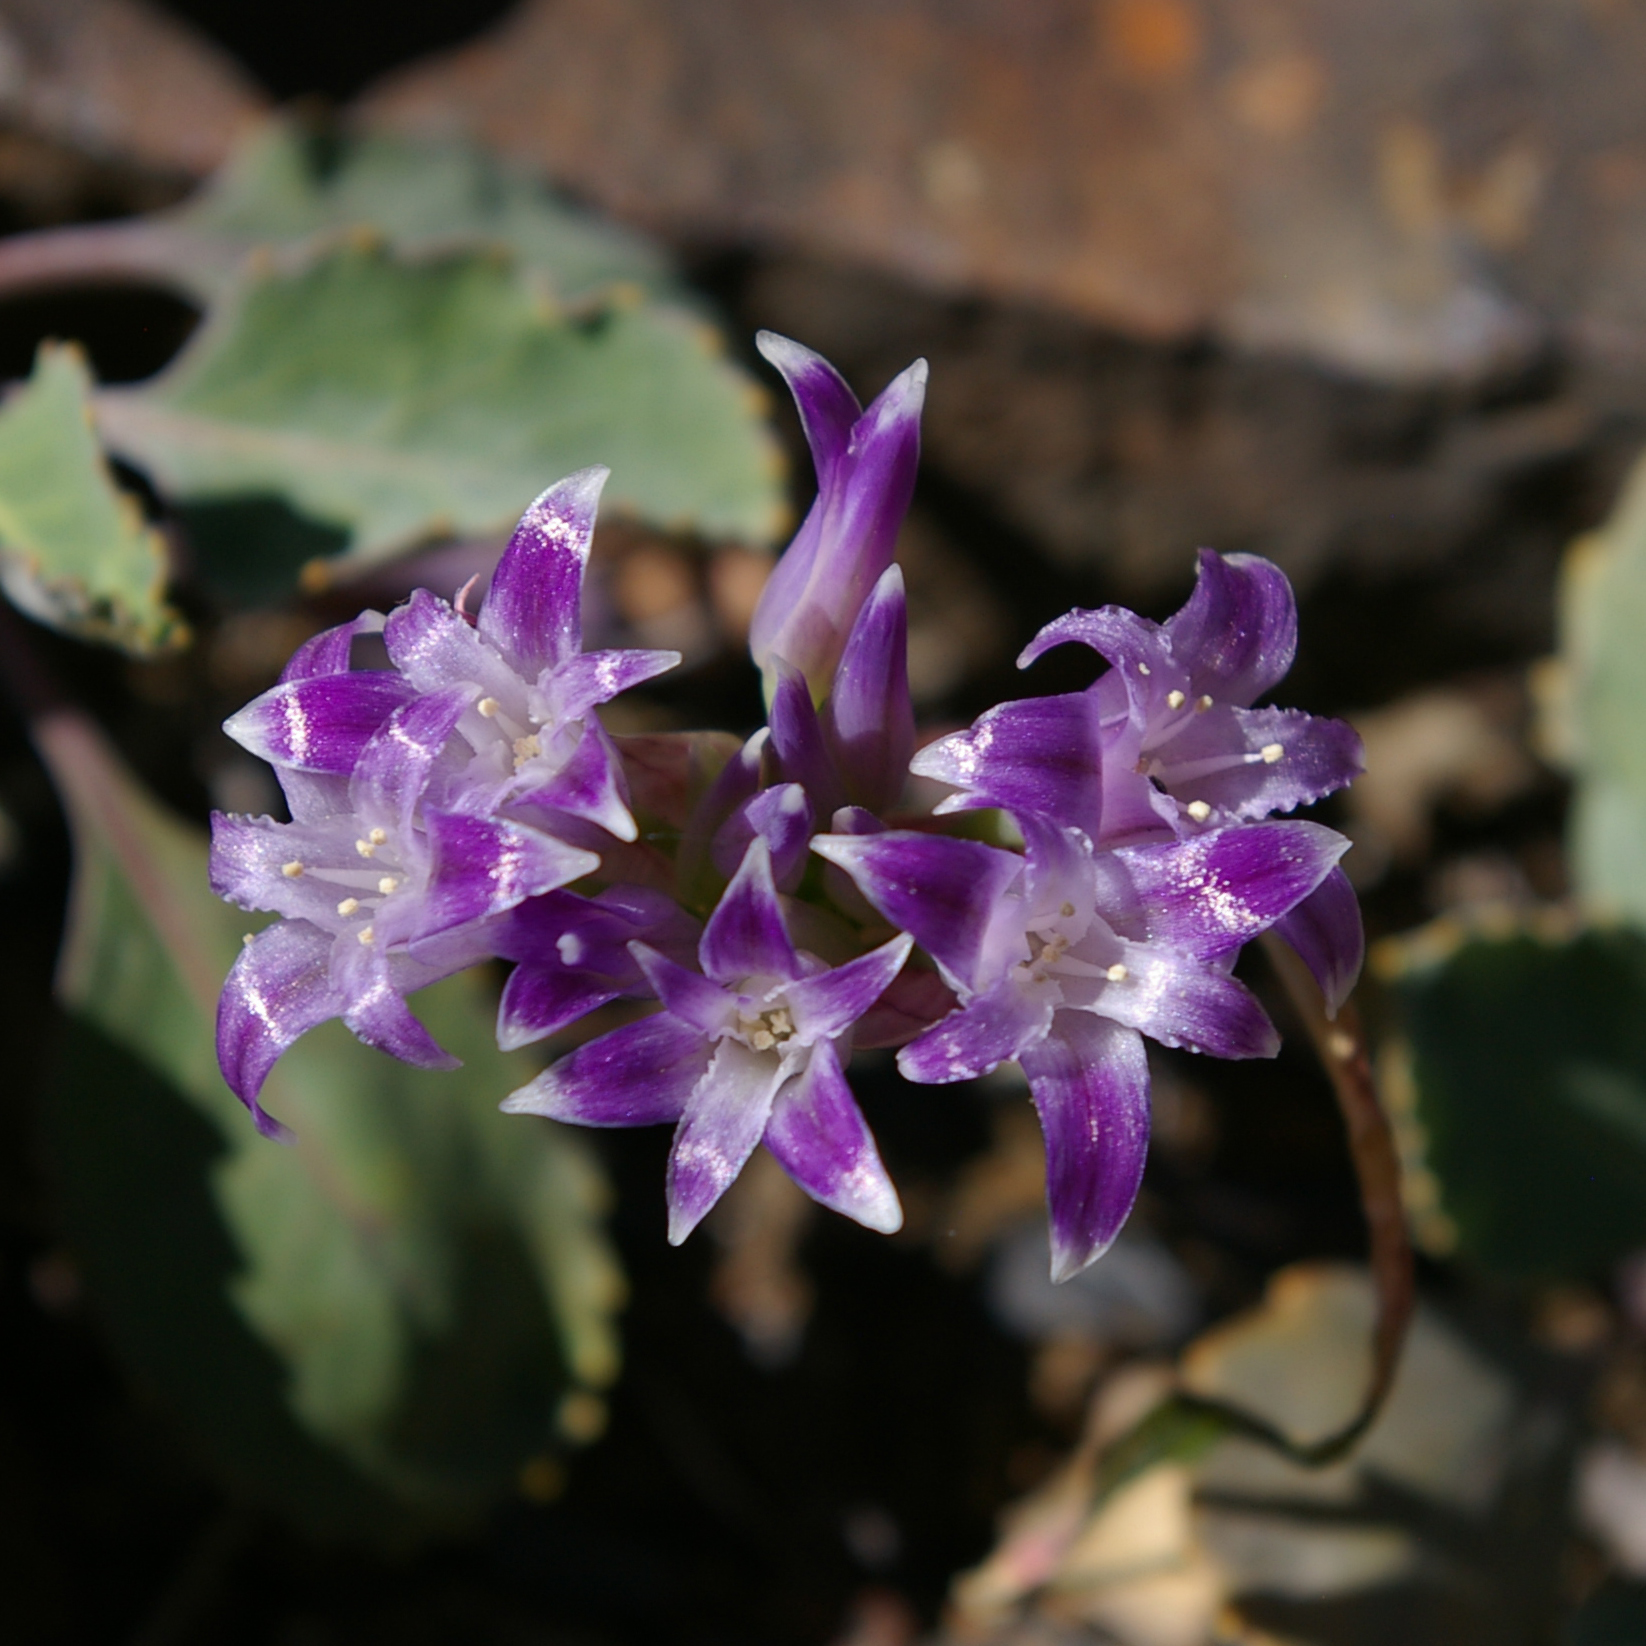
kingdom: Plantae
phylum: Tracheophyta
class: Liliopsida
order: Asparagales
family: Amaryllidaceae
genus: Allium
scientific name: Allium abramsii
